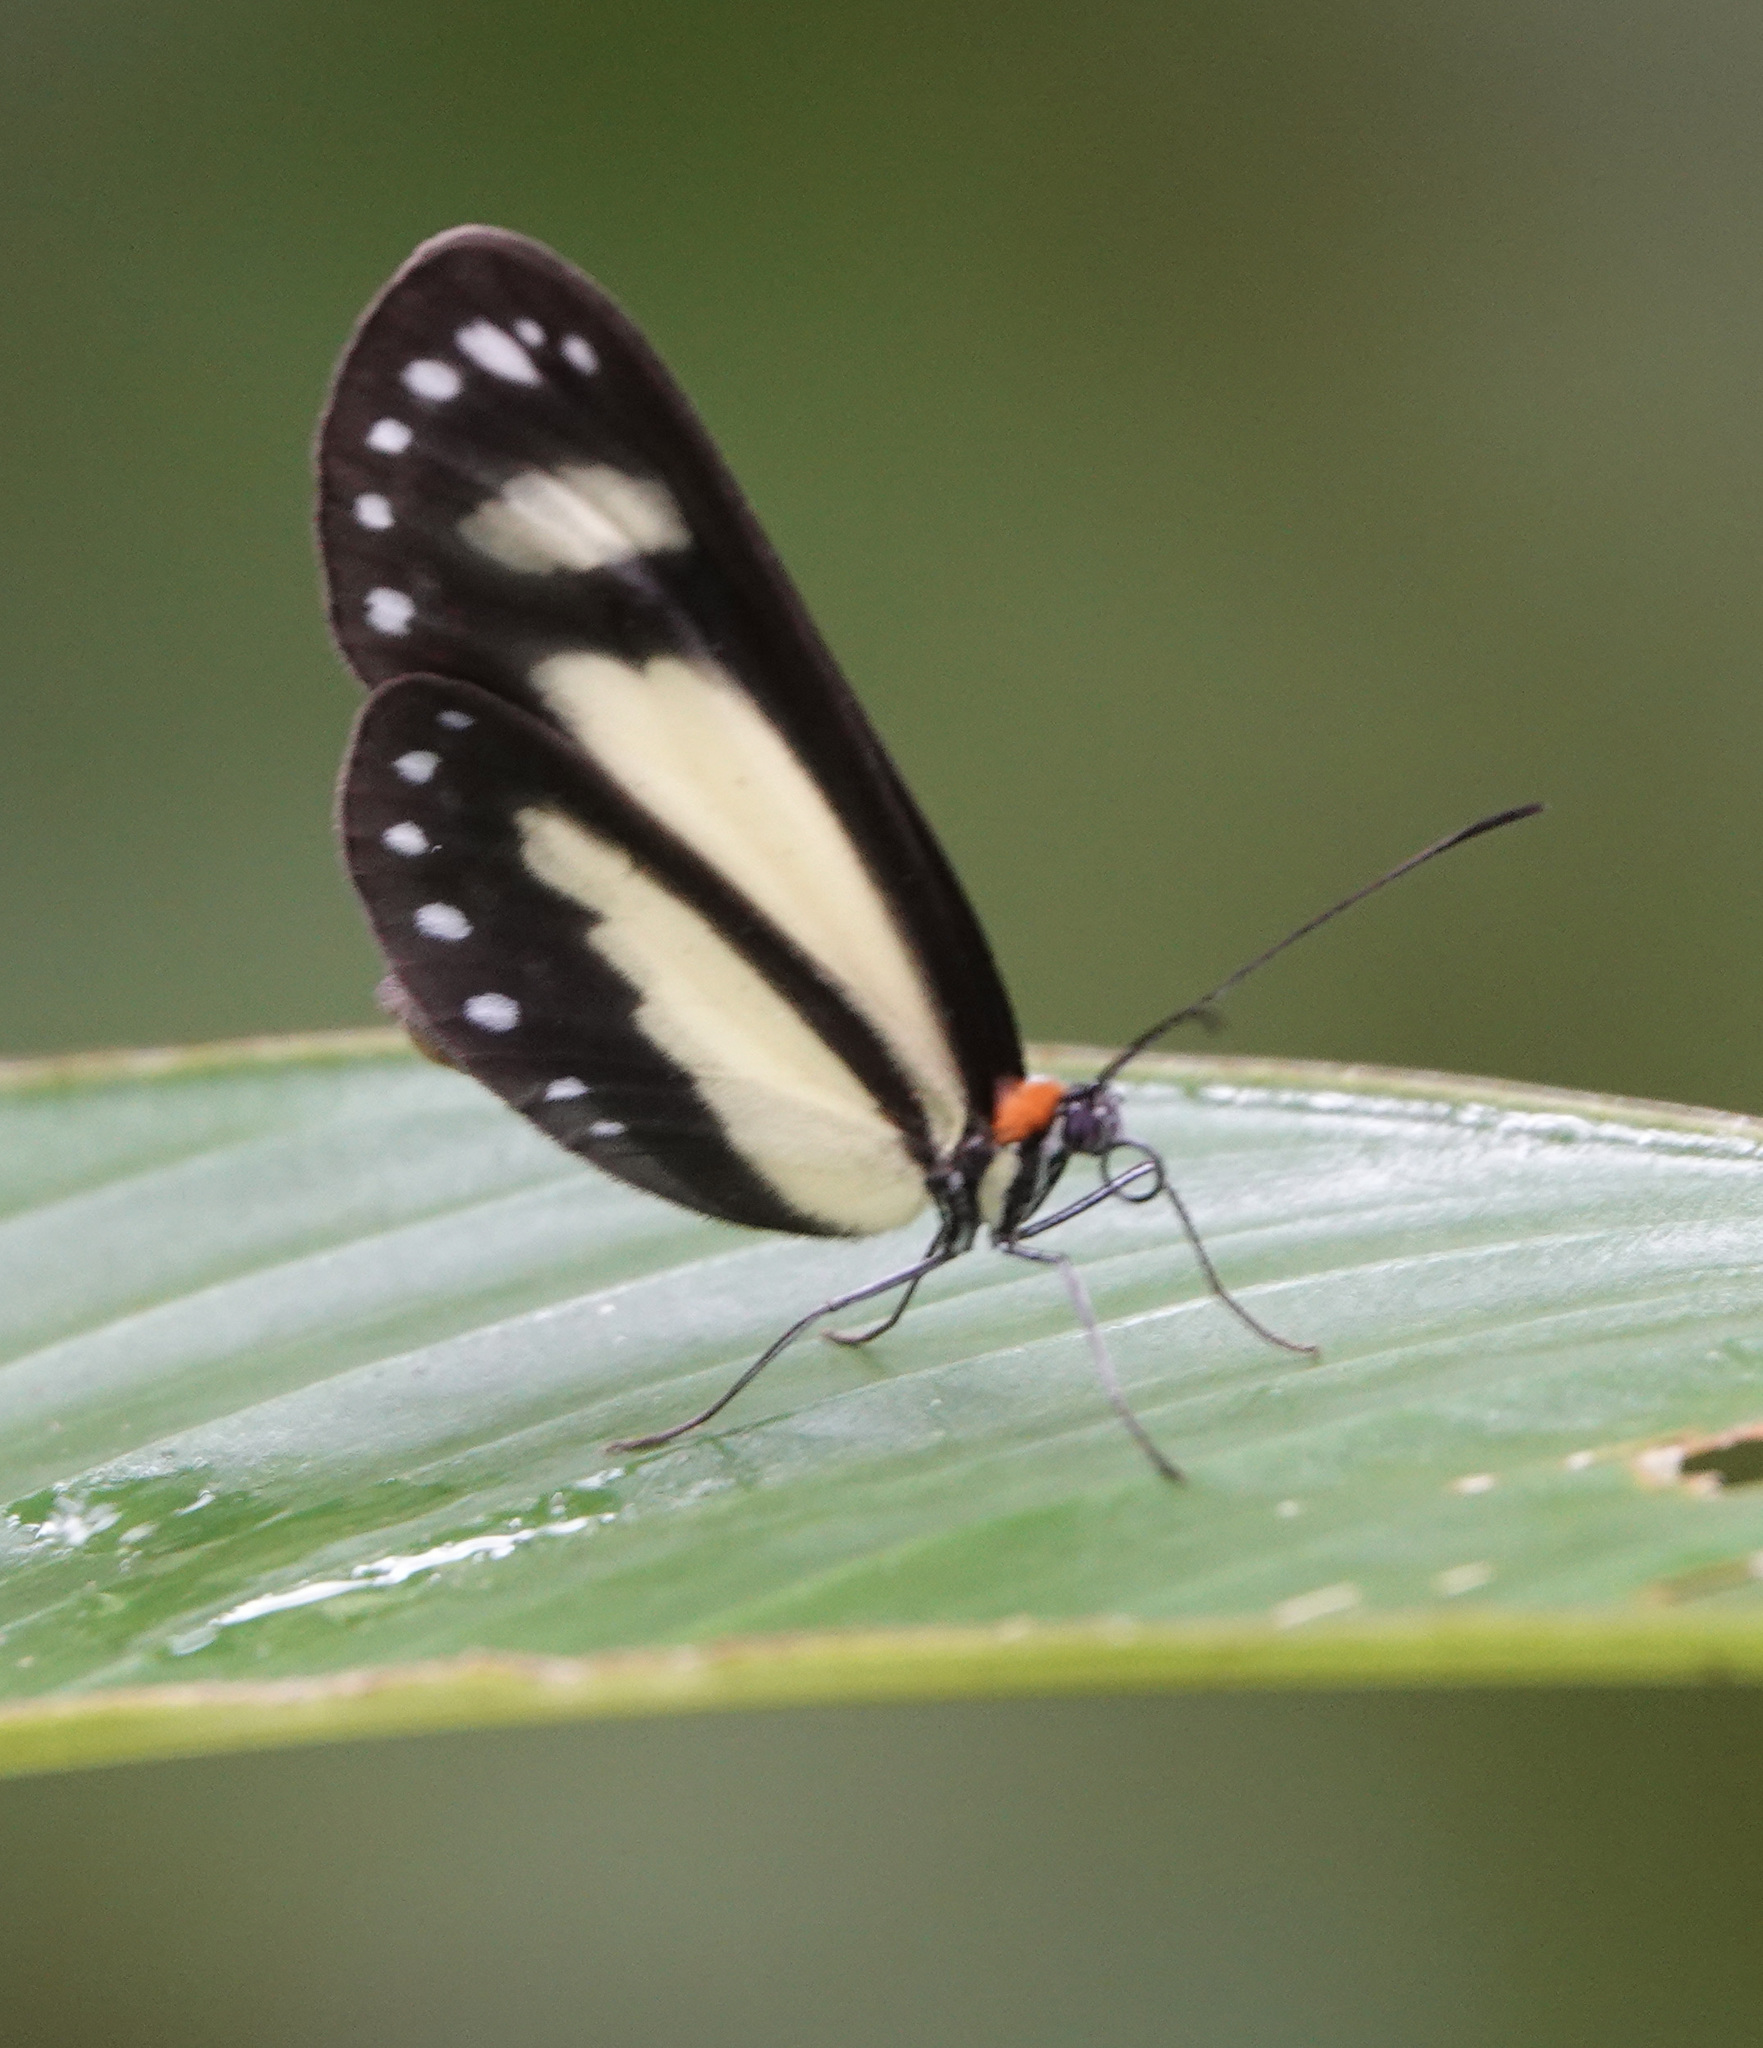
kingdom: Animalia
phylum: Arthropoda
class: Insecta
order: Lepidoptera
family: Nymphalidae
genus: Scada
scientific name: Scada zibia
